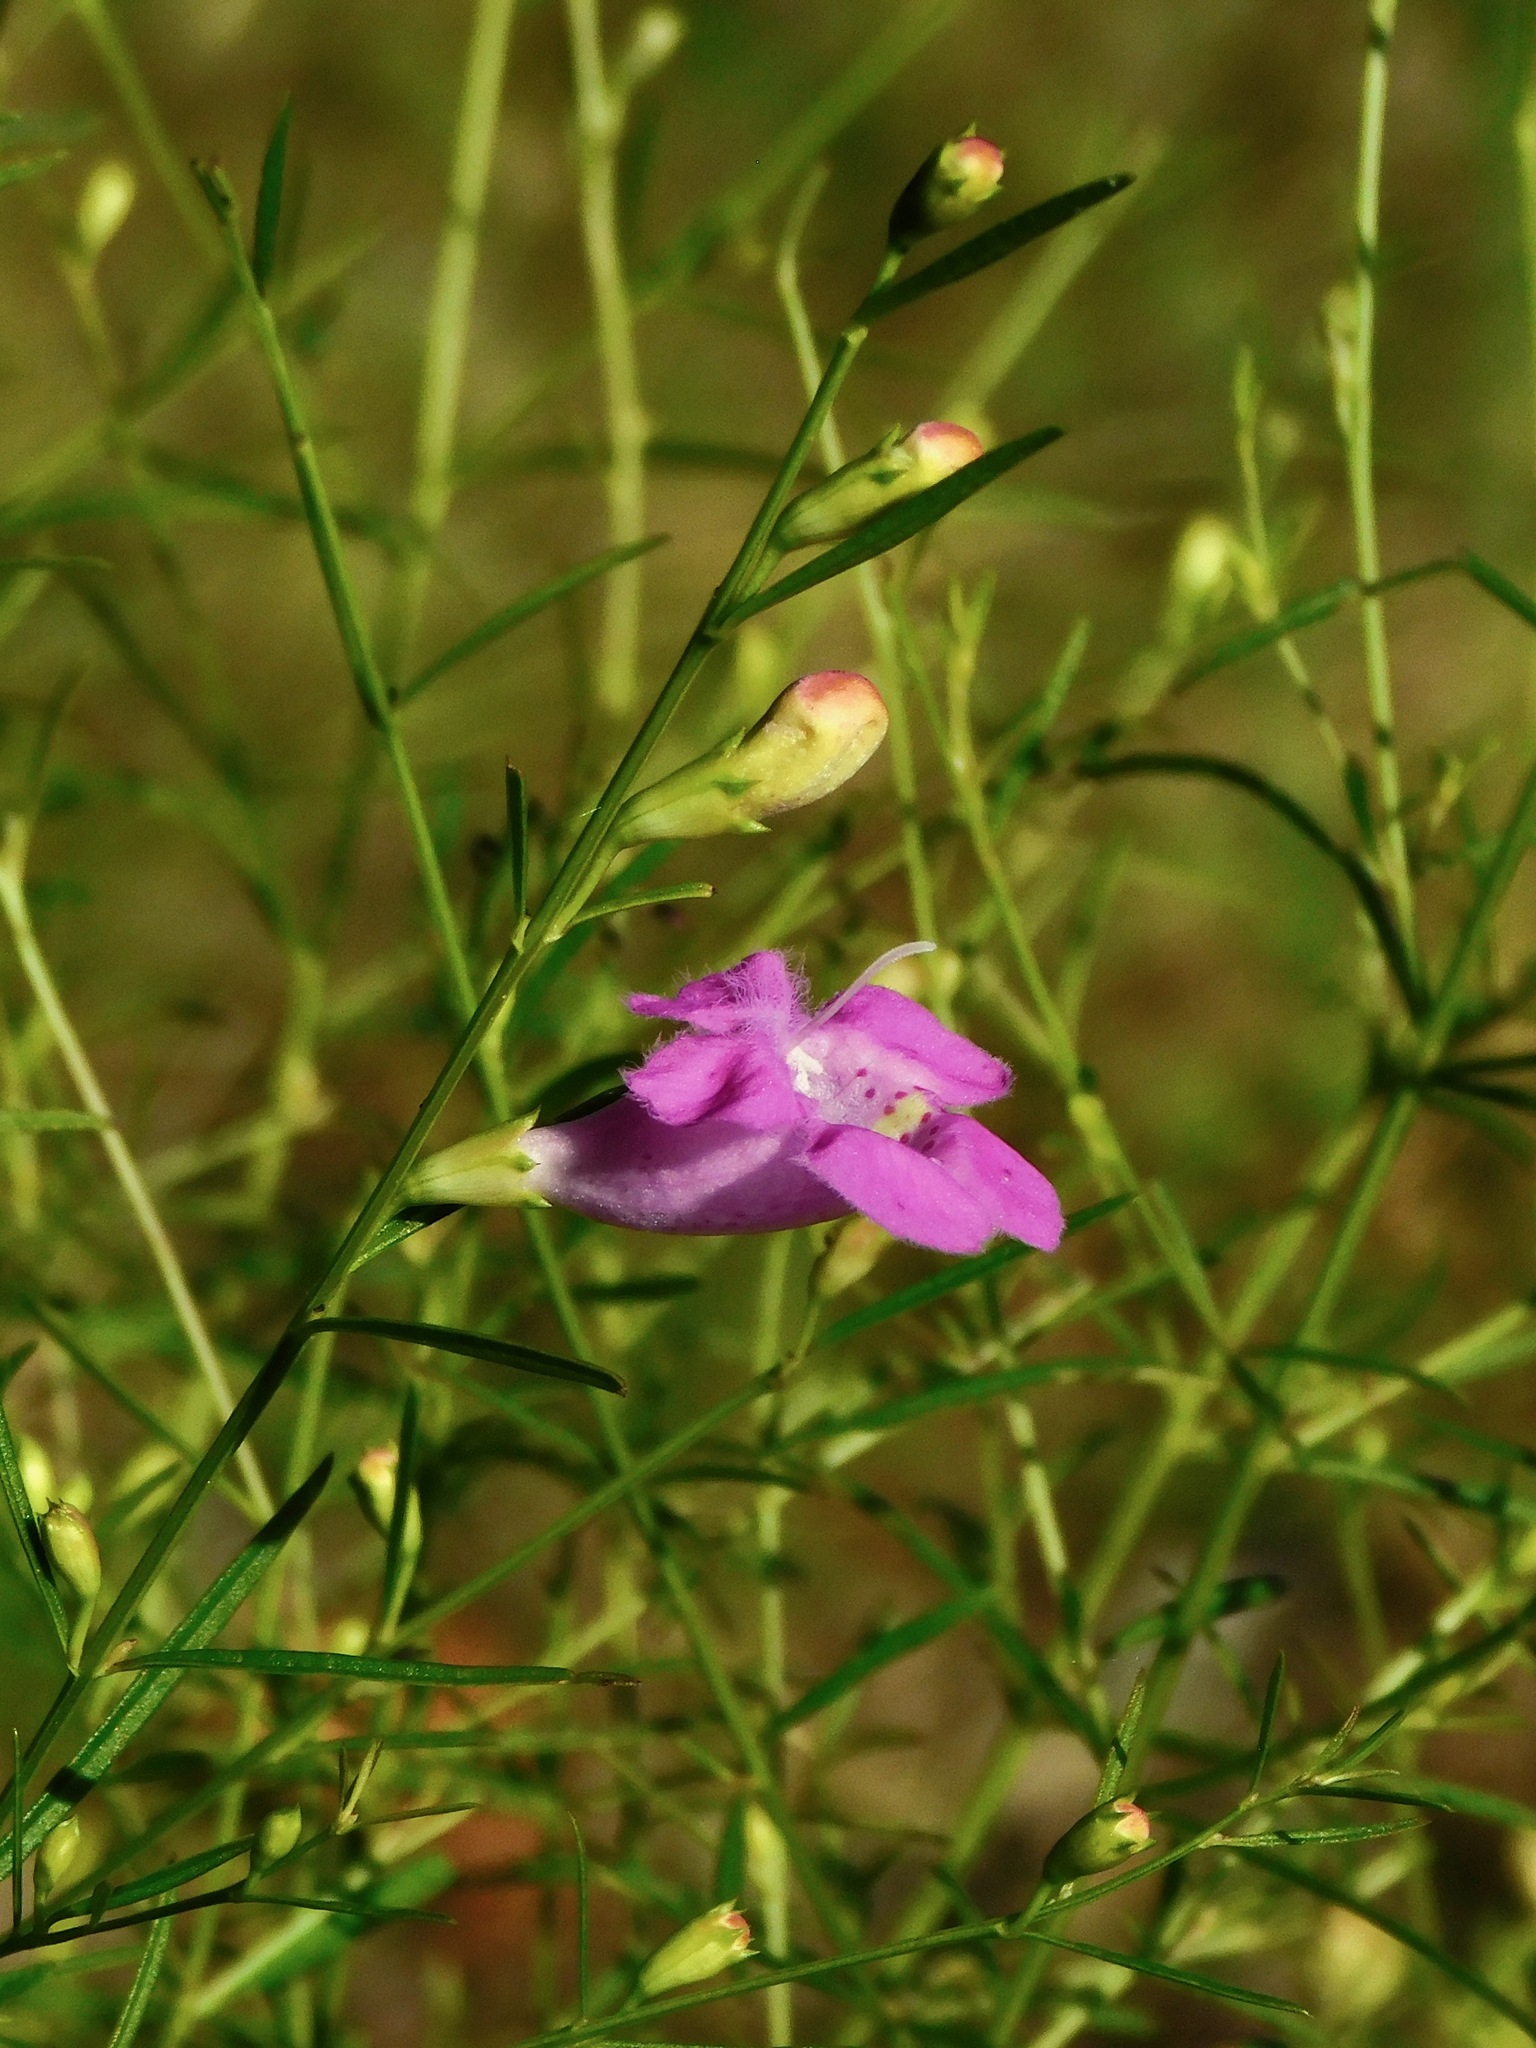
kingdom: Plantae
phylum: Tracheophyta
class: Magnoliopsida
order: Lamiales
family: Orobanchaceae
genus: Agalinis
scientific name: Agalinis fasciculata
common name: Beach false foxglove
